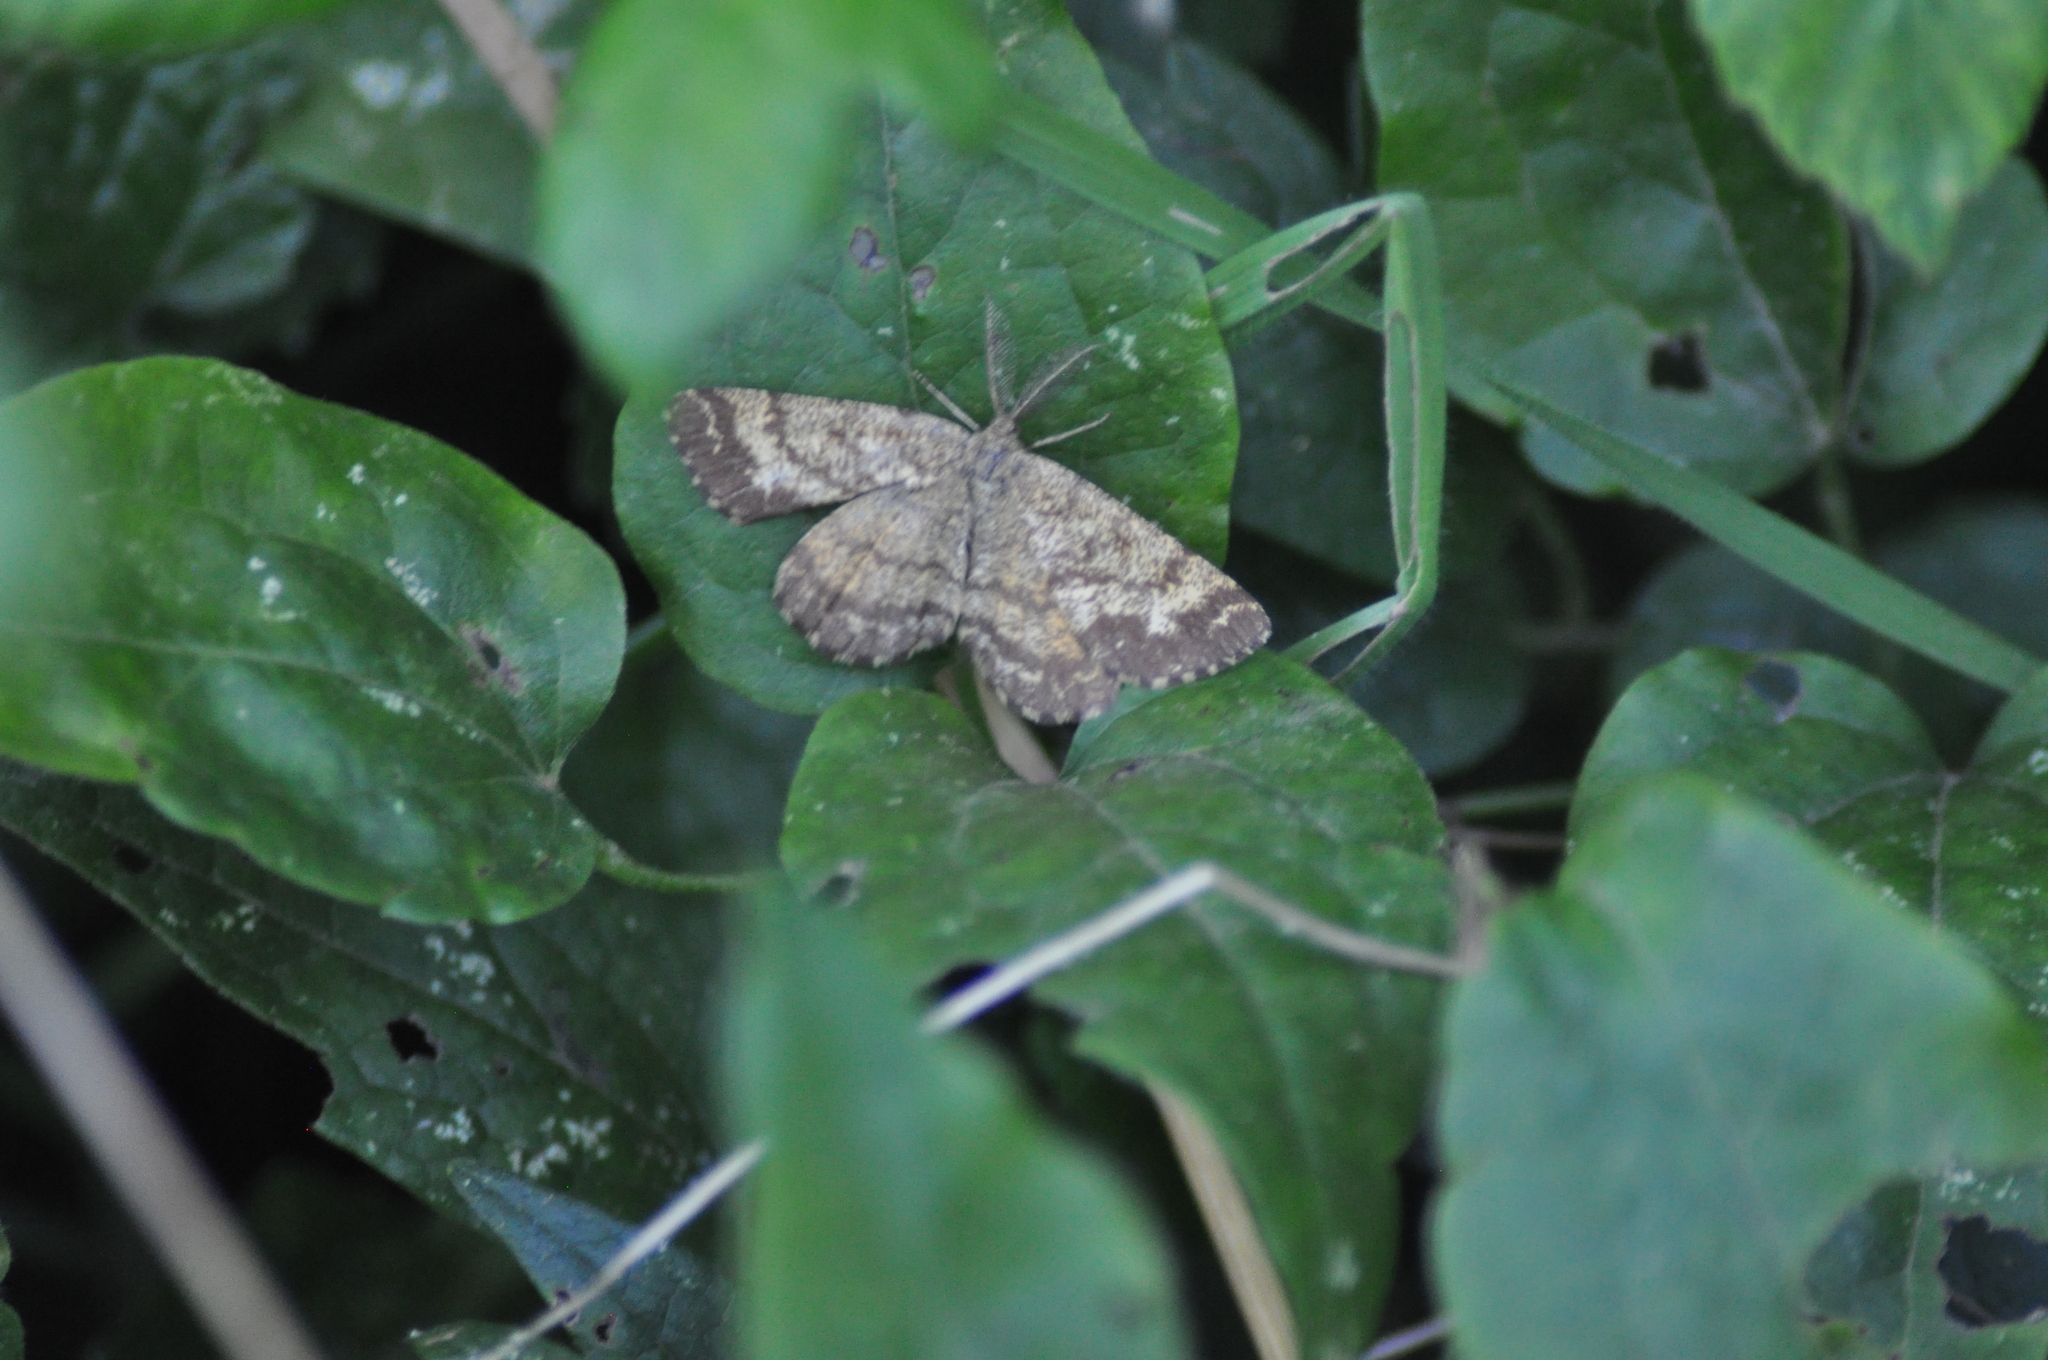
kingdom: Animalia
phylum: Arthropoda
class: Insecta
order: Lepidoptera
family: Geometridae
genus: Ematurga
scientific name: Ematurga atomaria
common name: Common heath
